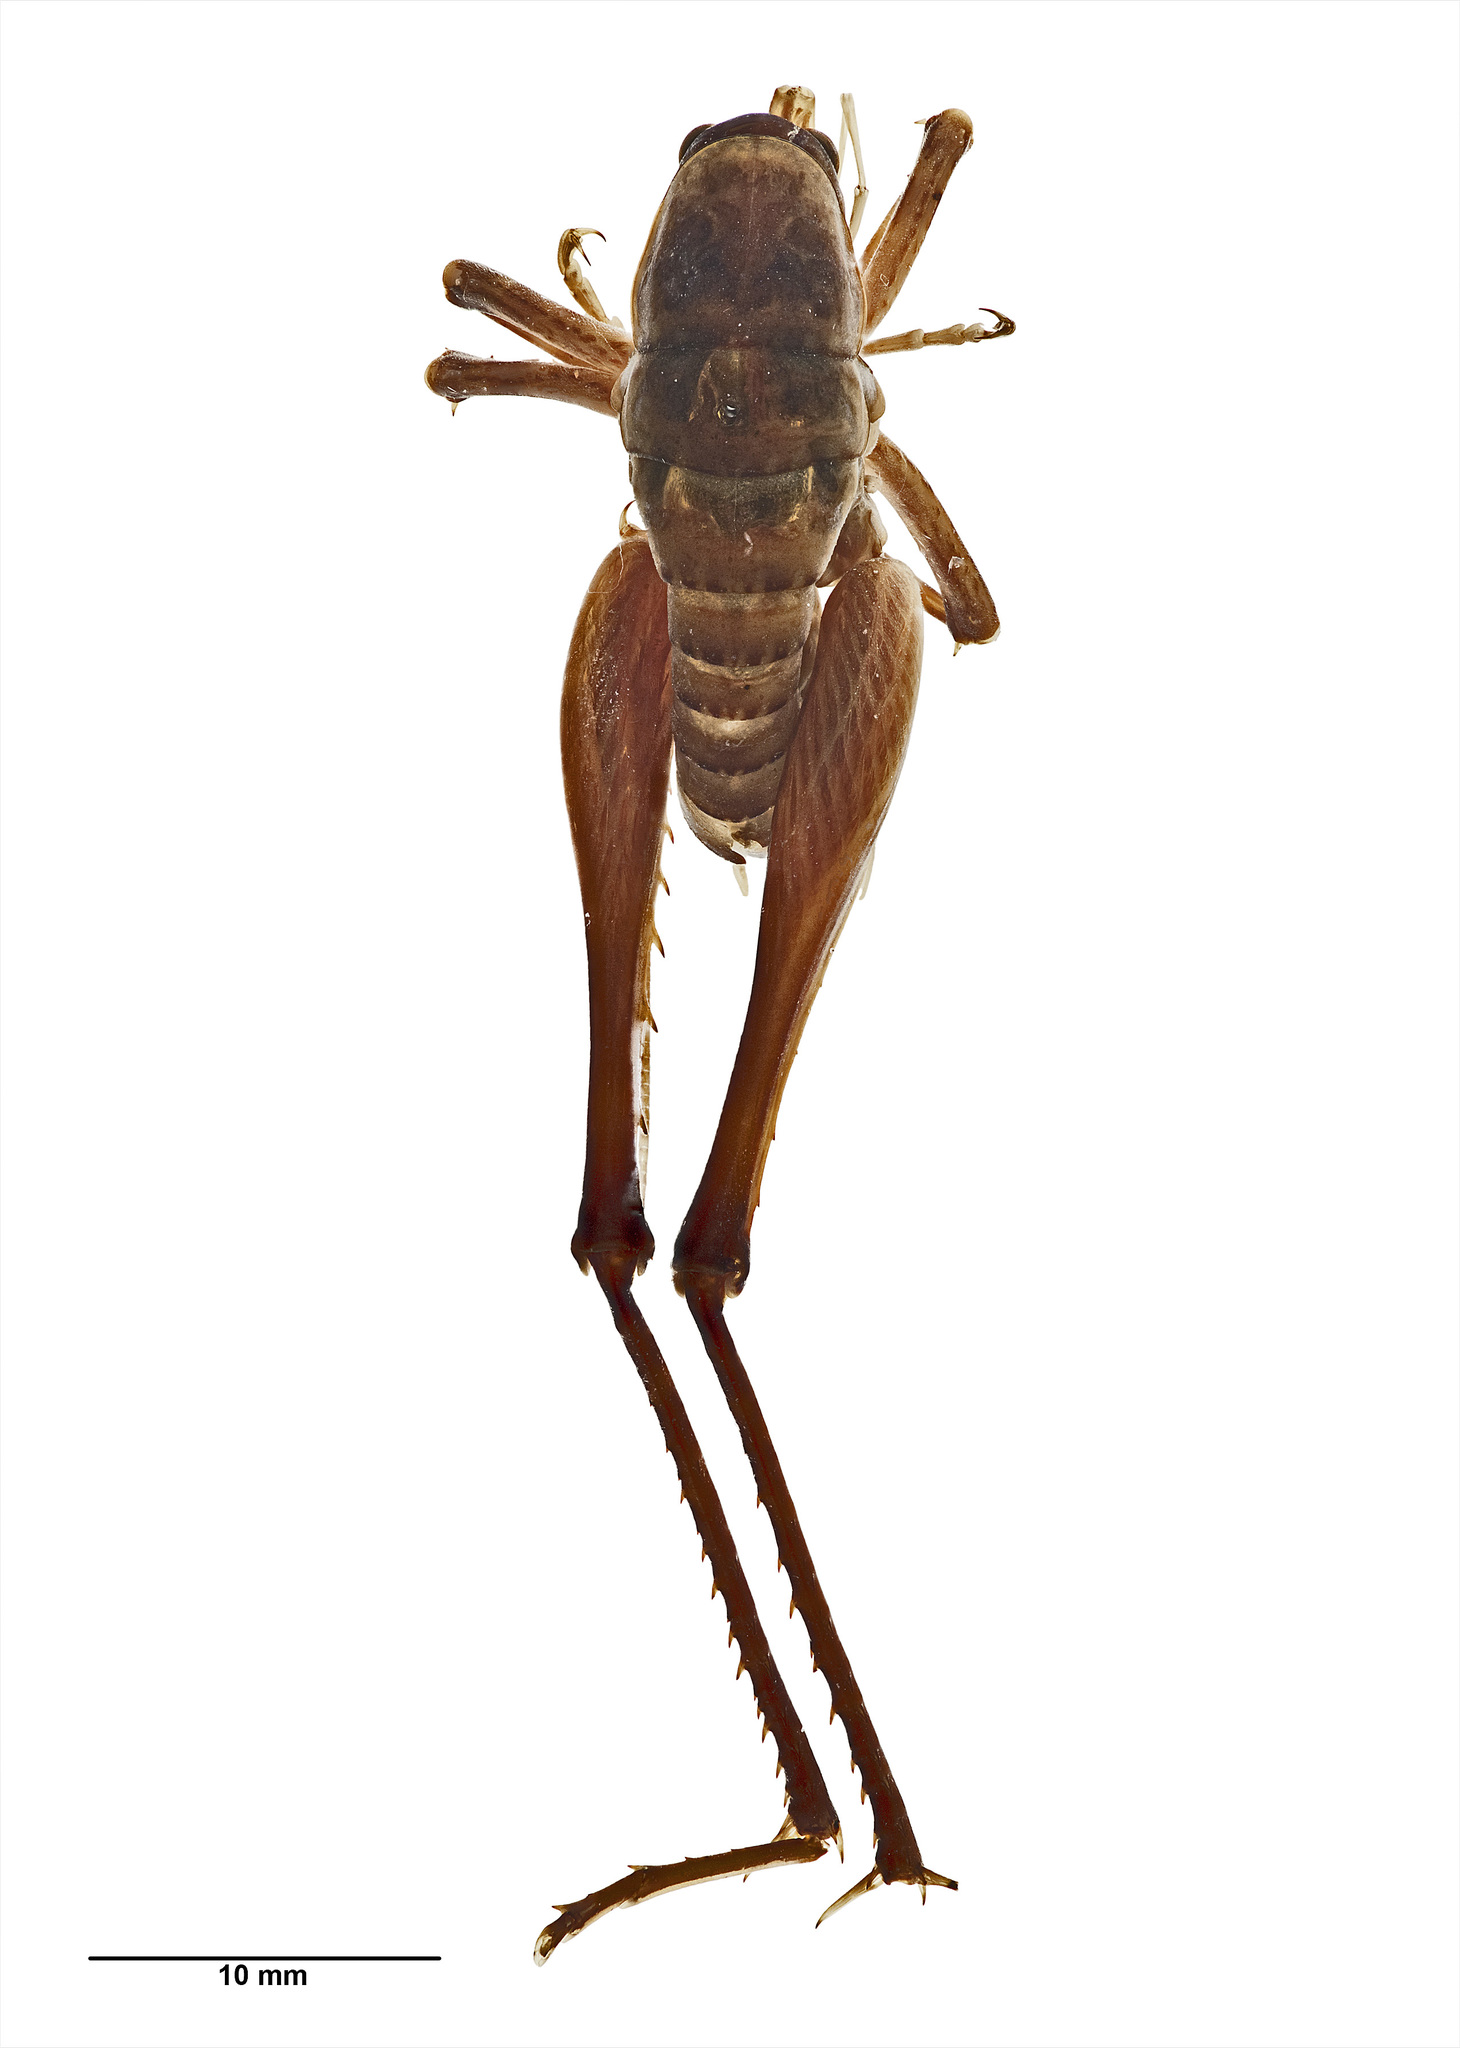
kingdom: Animalia
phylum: Arthropoda
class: Insecta
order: Orthoptera
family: Rhaphidophoridae
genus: Pachyrhamma
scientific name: Pachyrhamma longicauda
